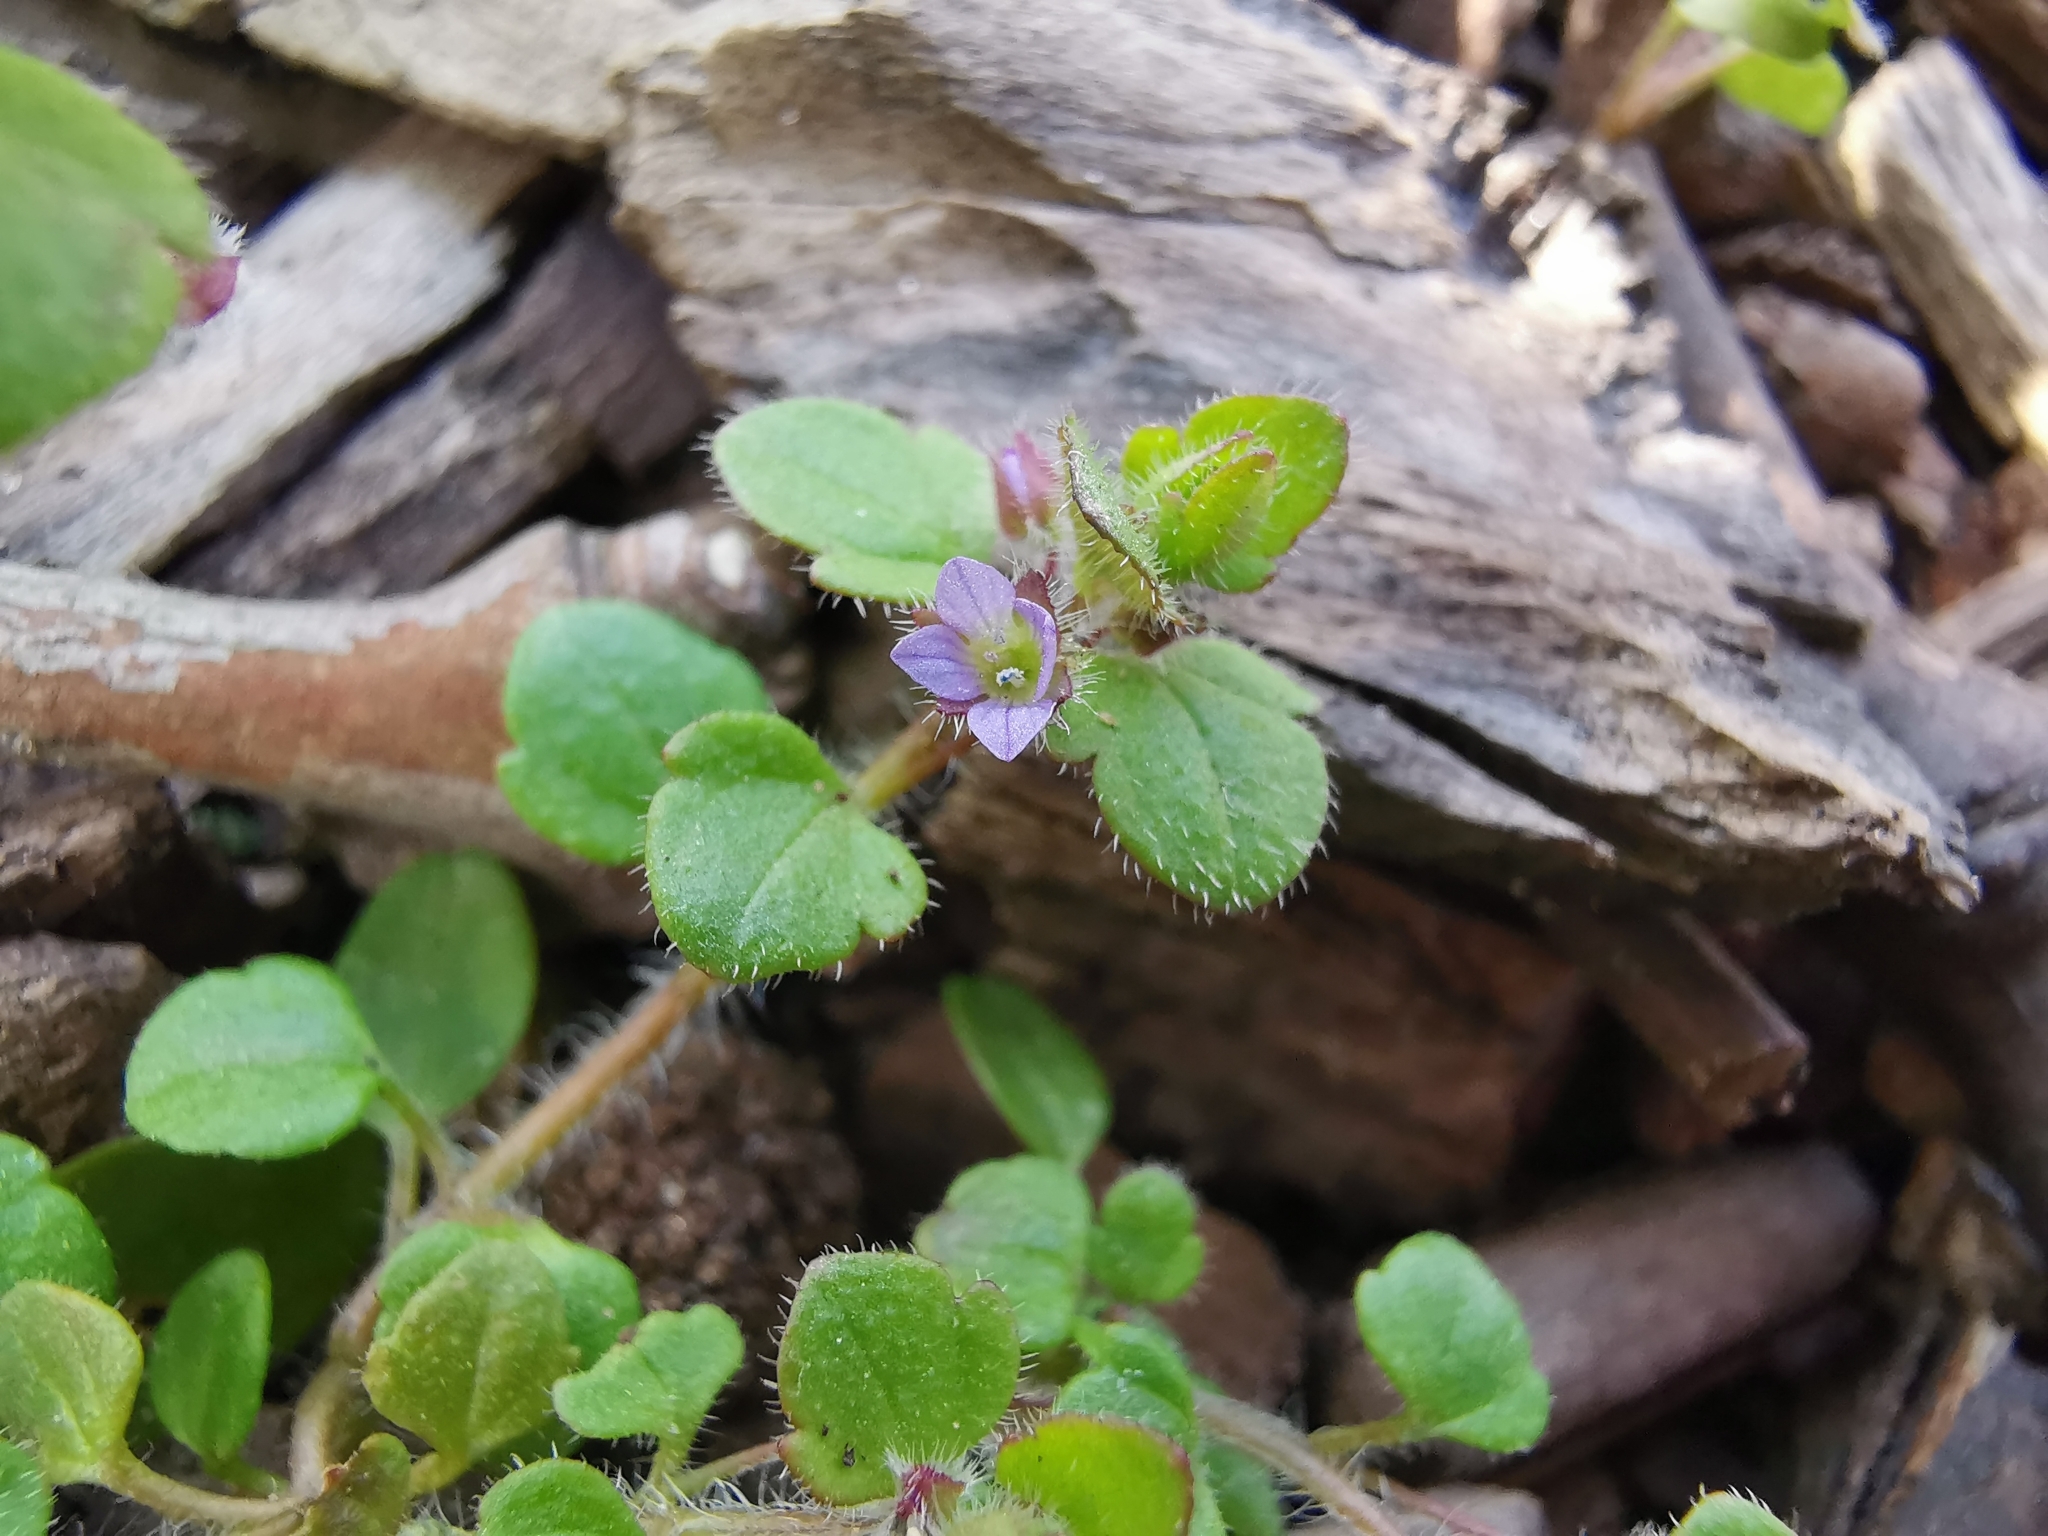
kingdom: Plantae
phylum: Tracheophyta
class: Magnoliopsida
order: Lamiales
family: Plantaginaceae
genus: Veronica
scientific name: Veronica sublobata
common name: False ivy-leaved speedwell
